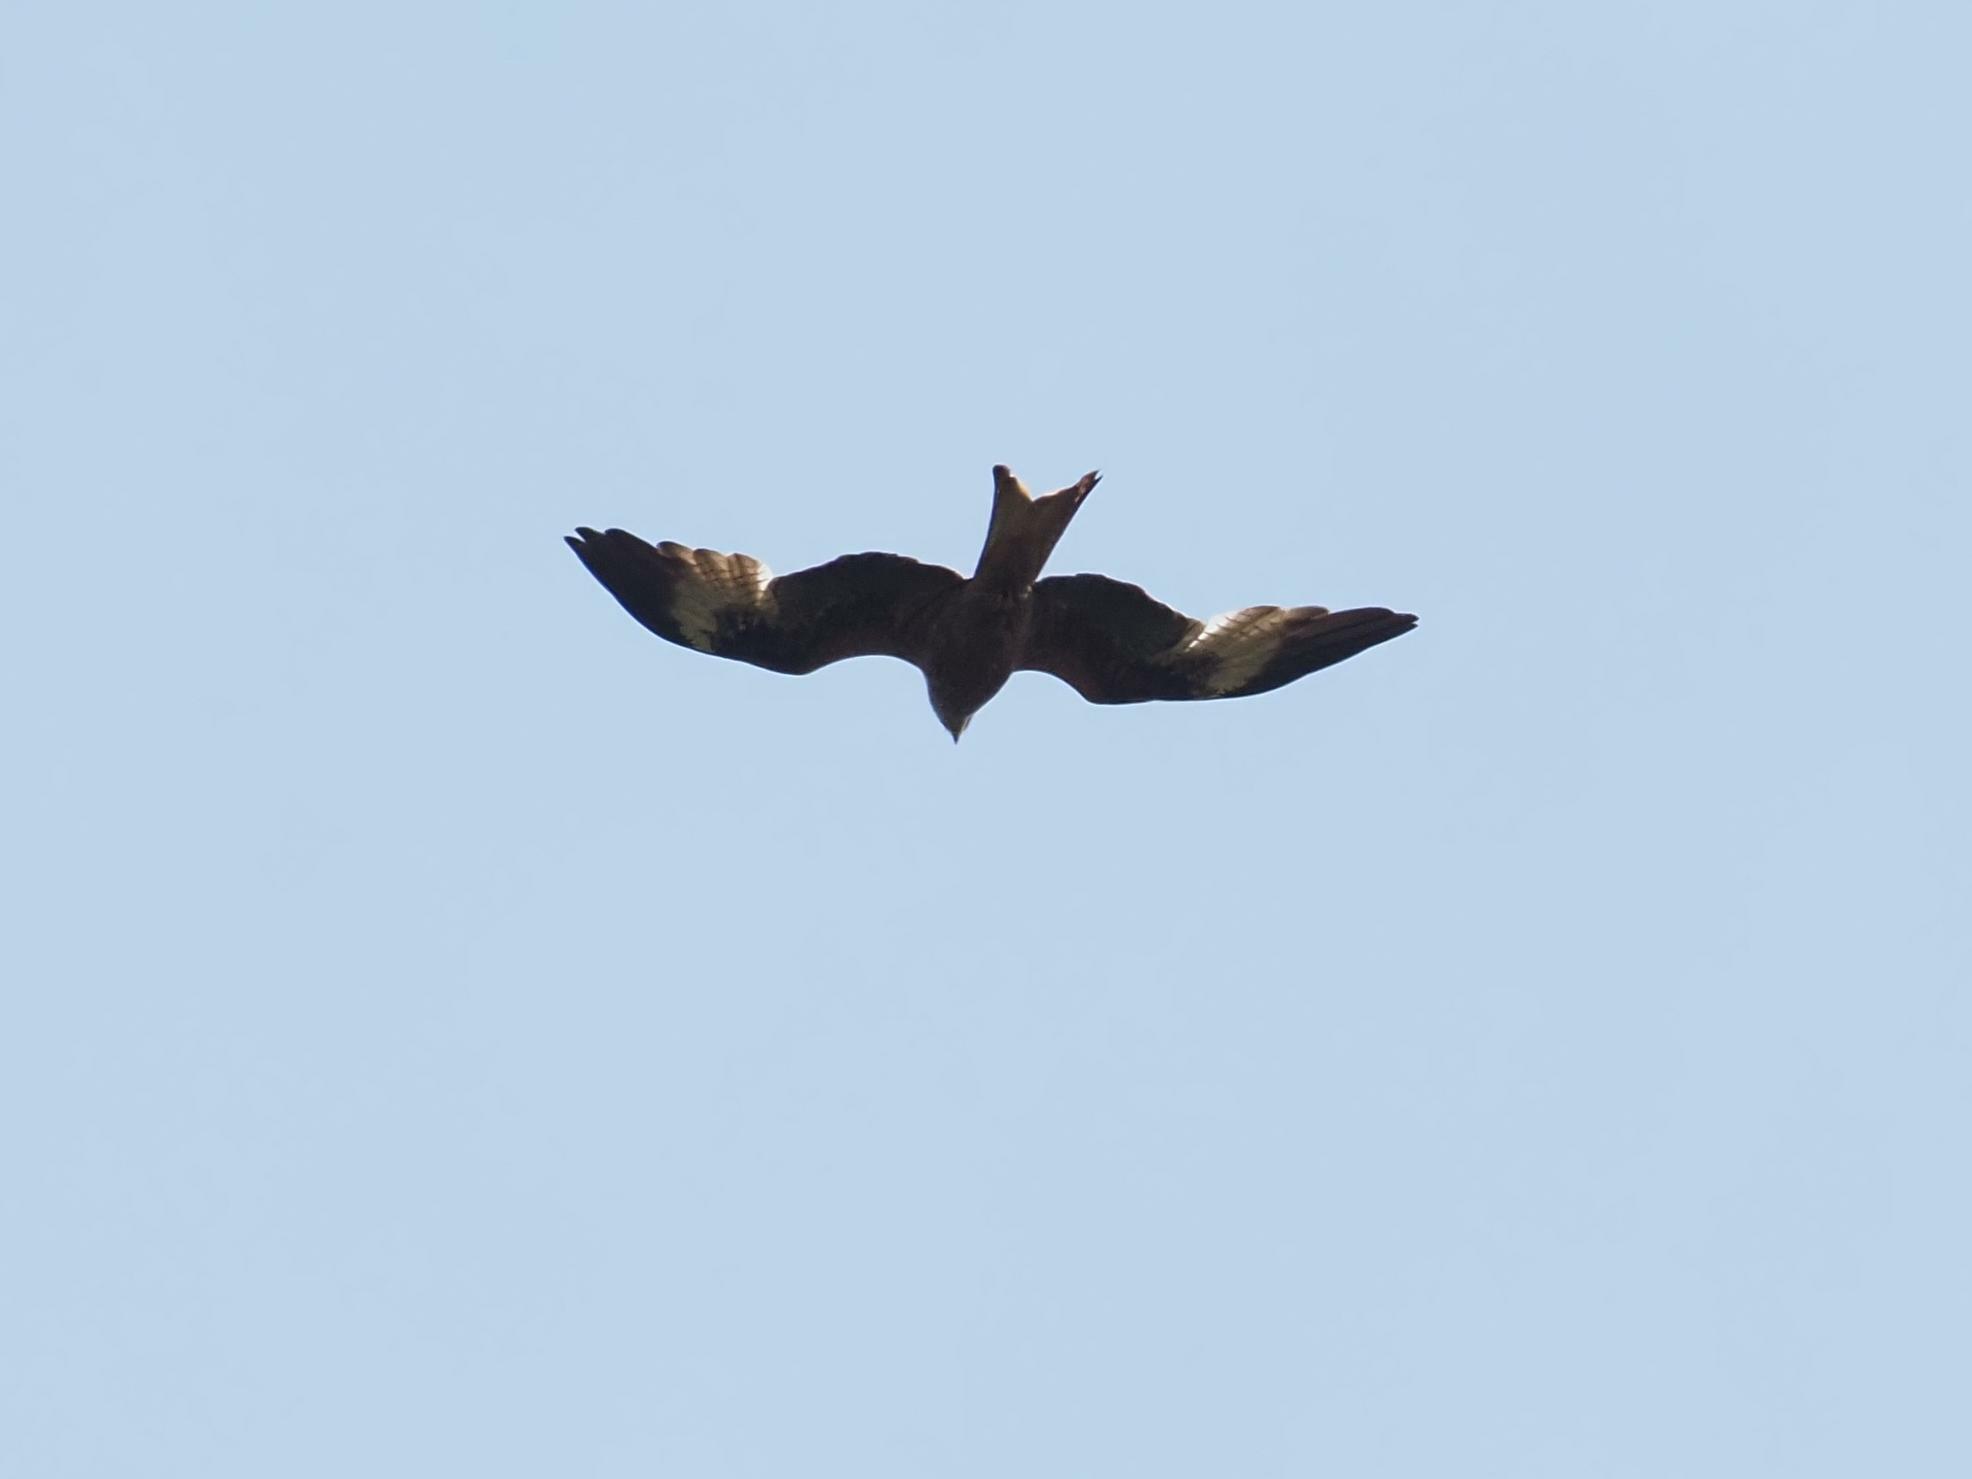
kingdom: Animalia
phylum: Chordata
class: Aves
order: Accipitriformes
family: Accipitridae
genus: Milvus
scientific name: Milvus milvus
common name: Red kite
